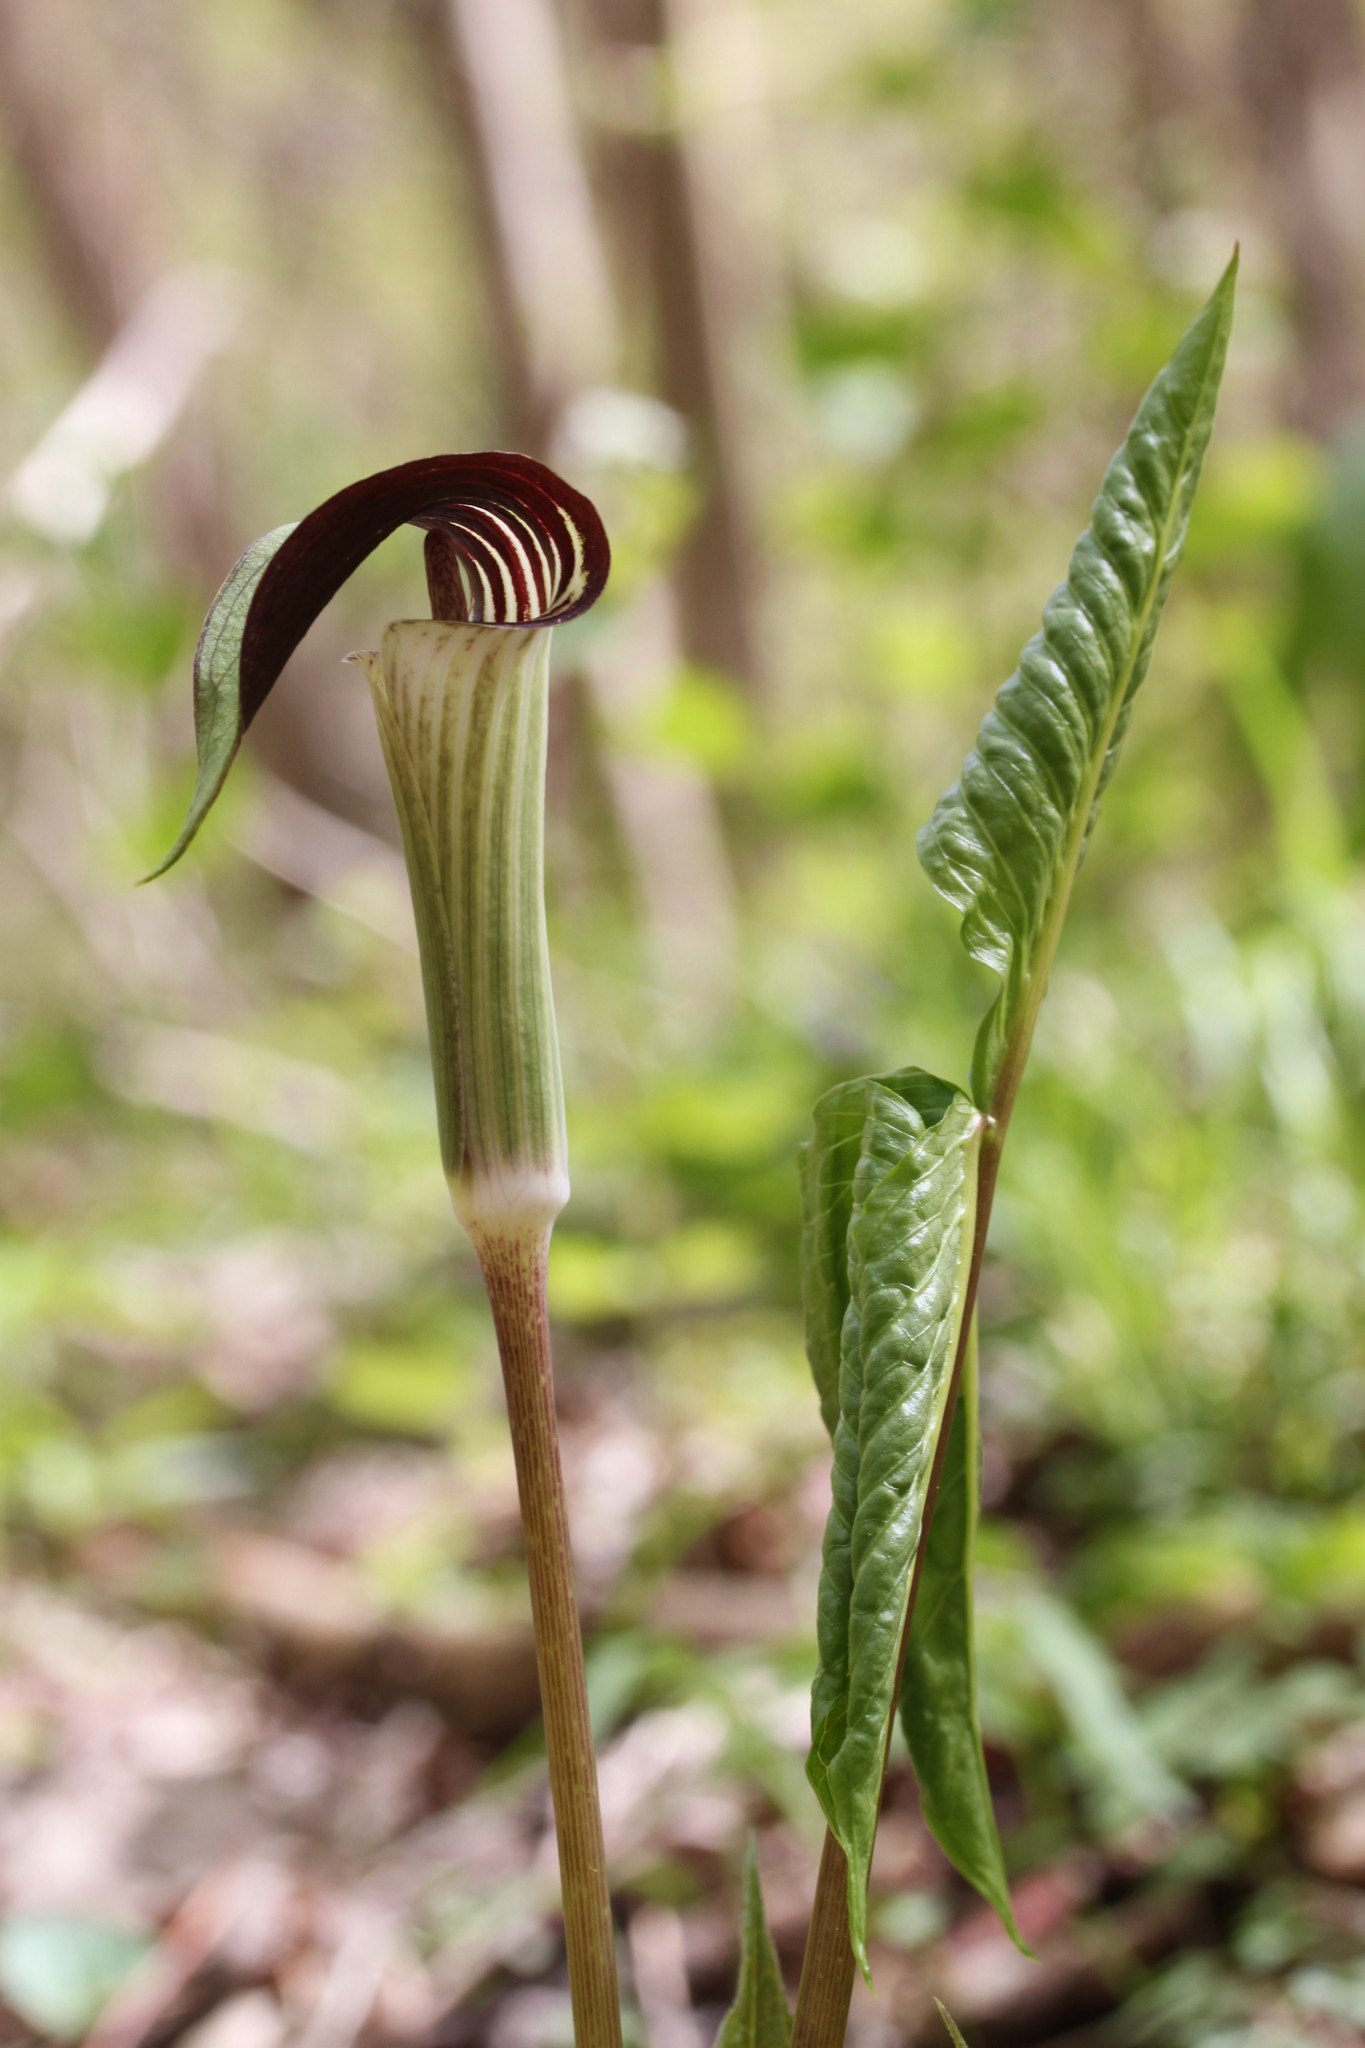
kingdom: Plantae
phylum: Tracheophyta
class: Liliopsida
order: Alismatales
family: Araceae
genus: Arisaema
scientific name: Arisaema triphyllum
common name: Jack-in-the-pulpit
